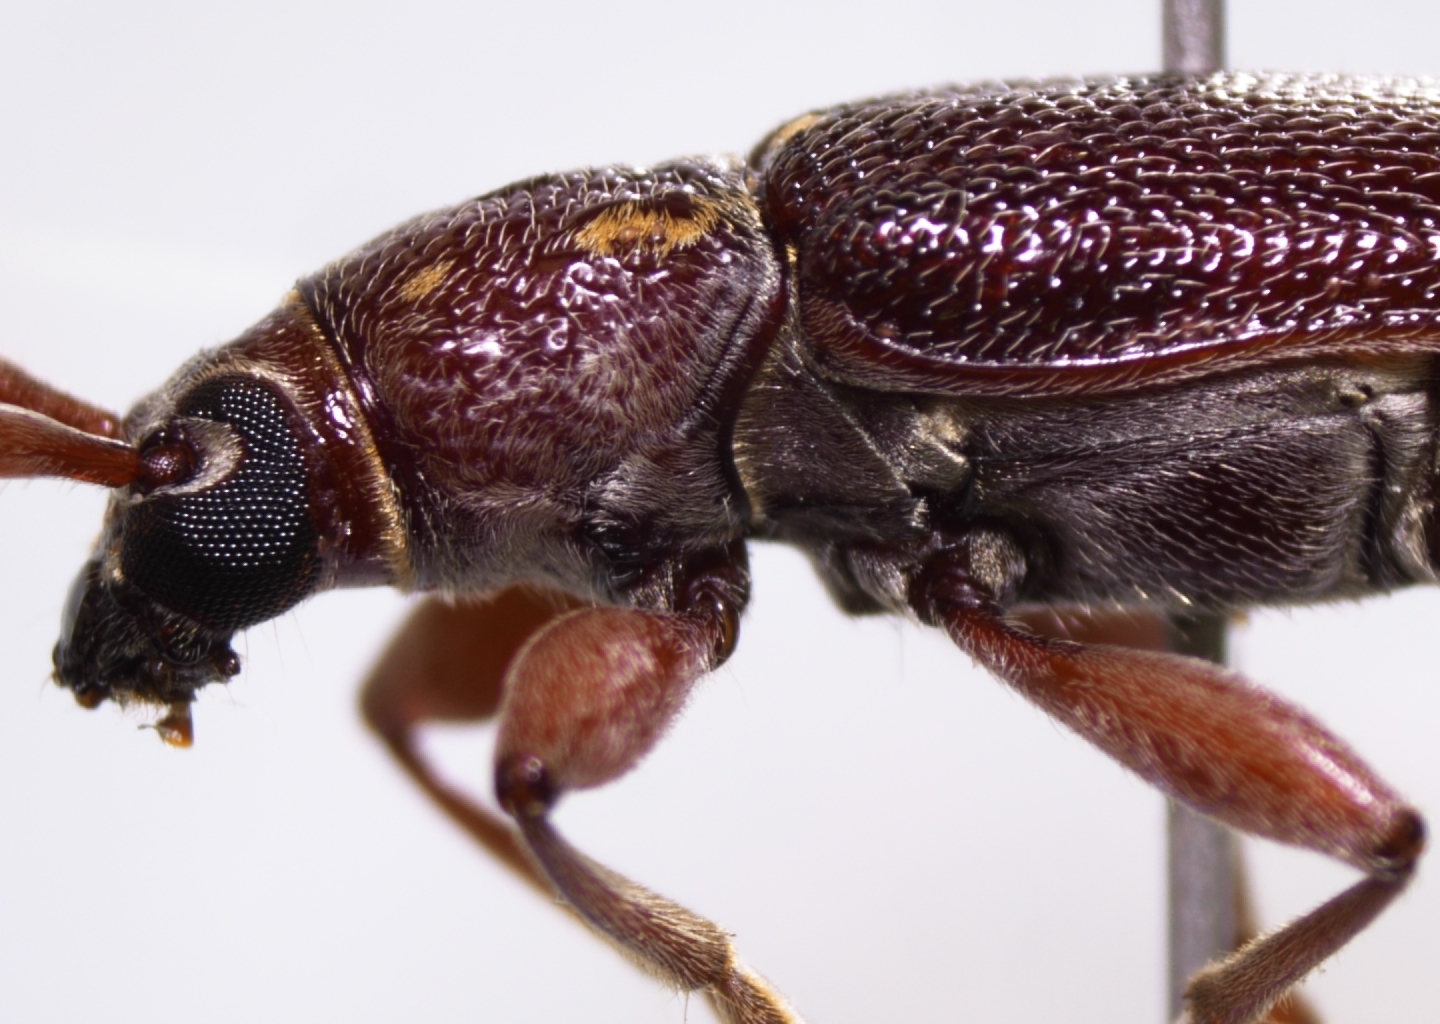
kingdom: Animalia
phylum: Arthropoda
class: Insecta
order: Coleoptera
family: Cerambycidae
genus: Ceresium
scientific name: Ceresium unicolor
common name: Citrus longhorn
